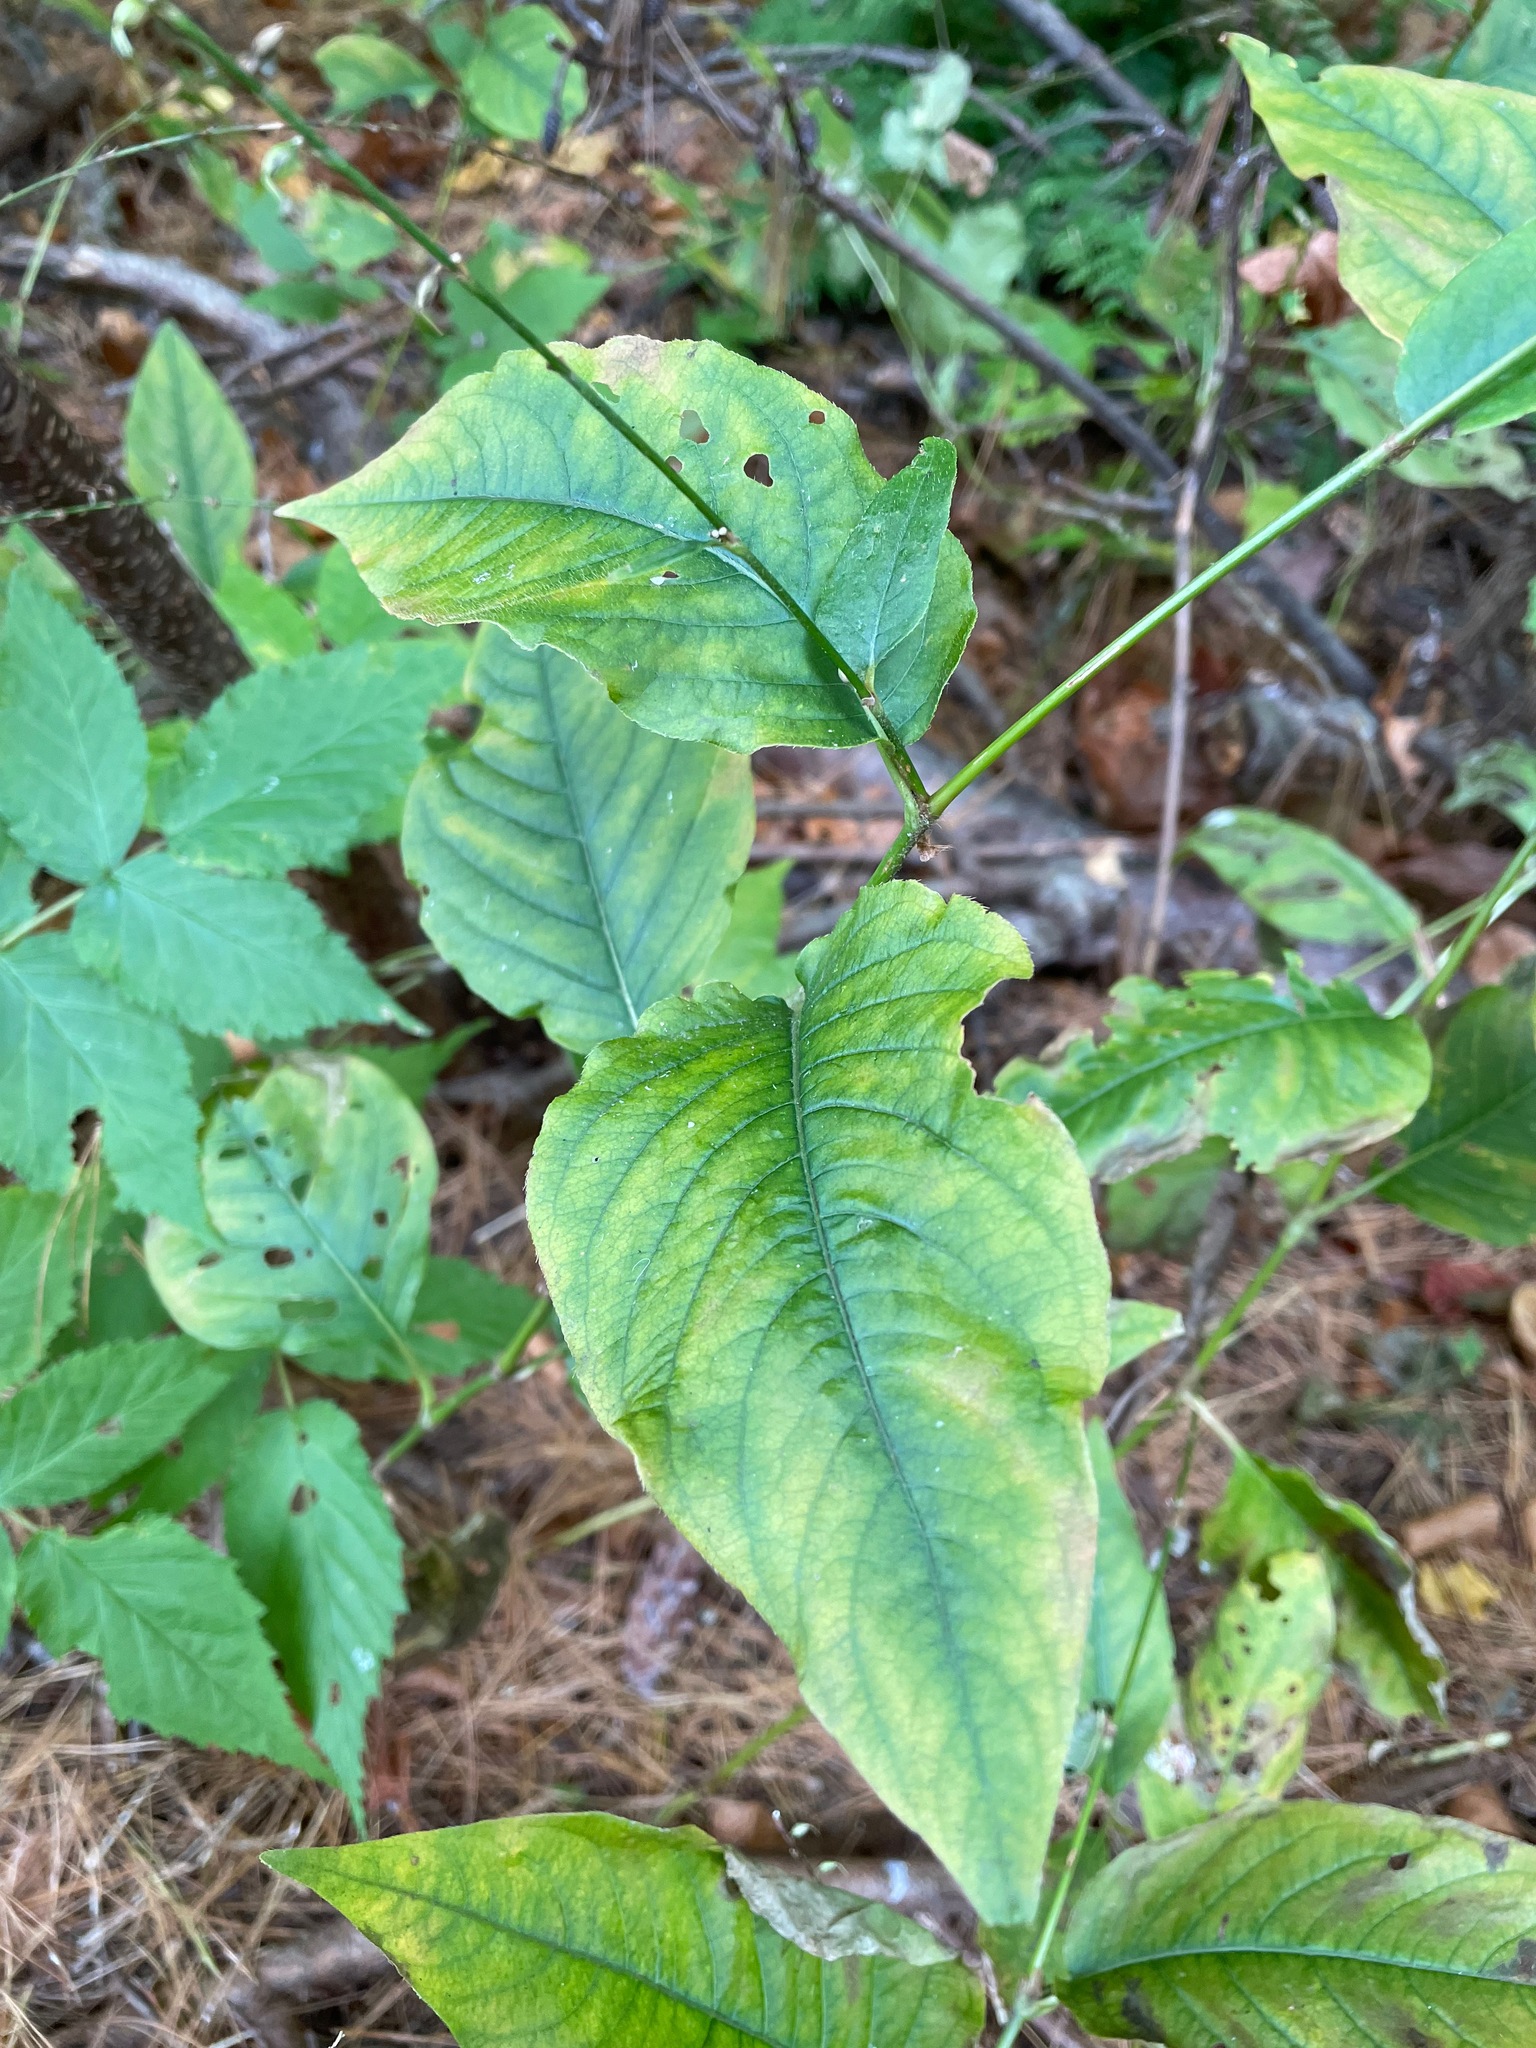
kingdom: Plantae
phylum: Tracheophyta
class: Magnoliopsida
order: Caryophyllales
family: Polygonaceae
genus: Persicaria
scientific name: Persicaria virginiana
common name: Jumpseed
